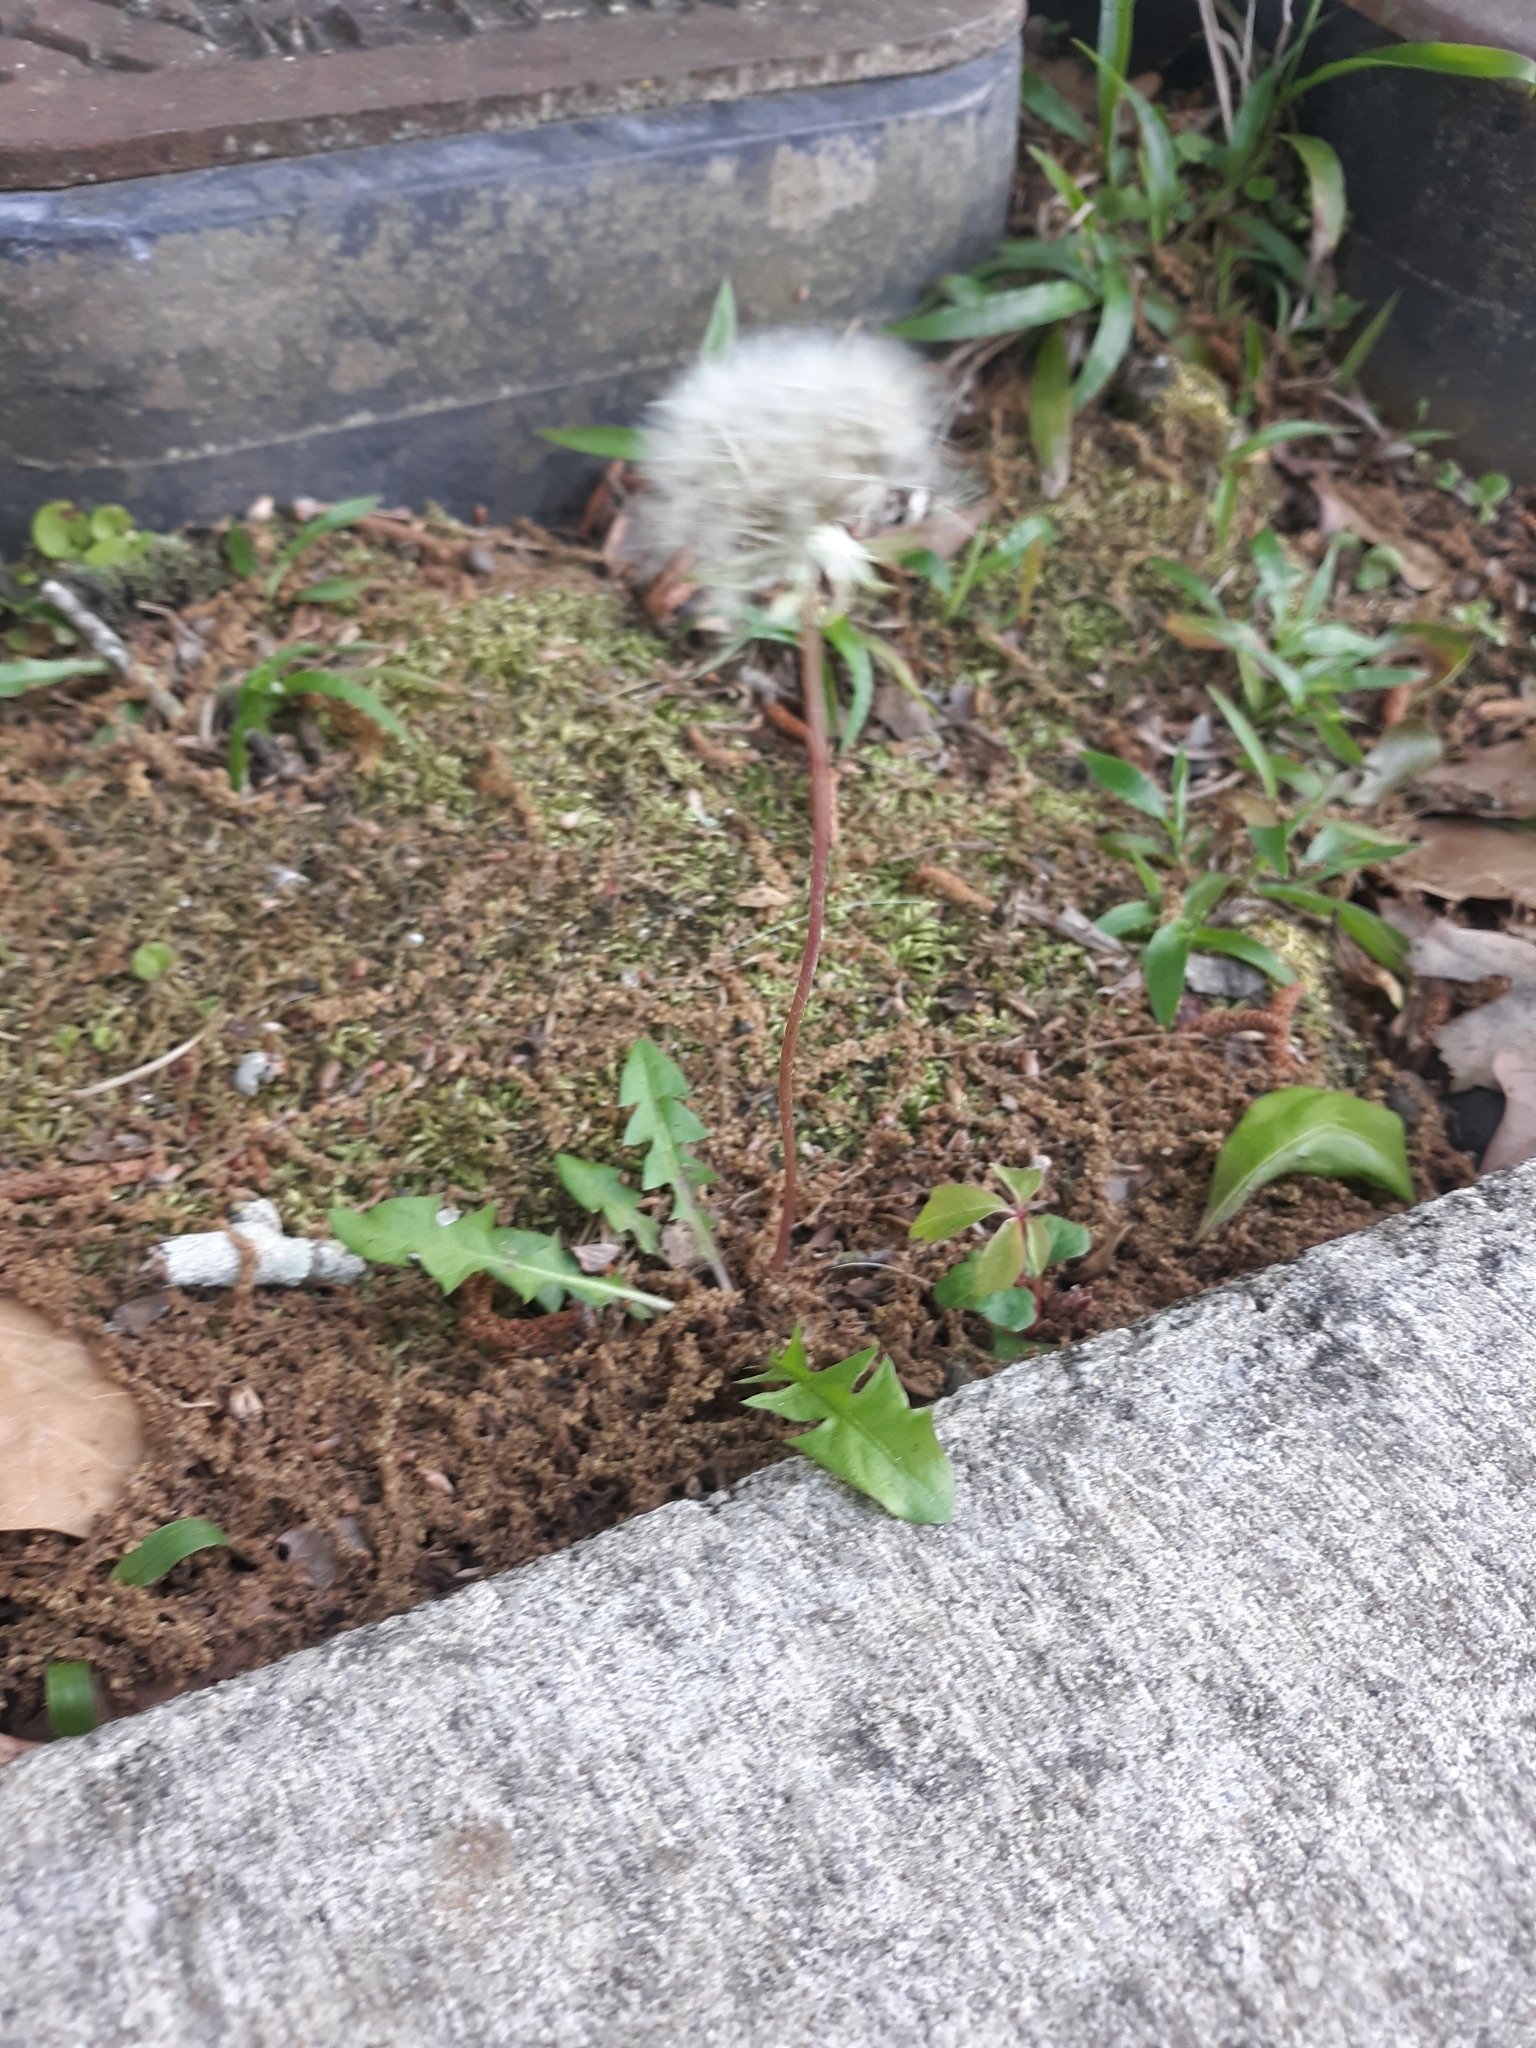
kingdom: Plantae
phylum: Tracheophyta
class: Magnoliopsida
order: Asterales
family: Asteraceae
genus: Taraxacum
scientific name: Taraxacum officinale
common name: Common dandelion
